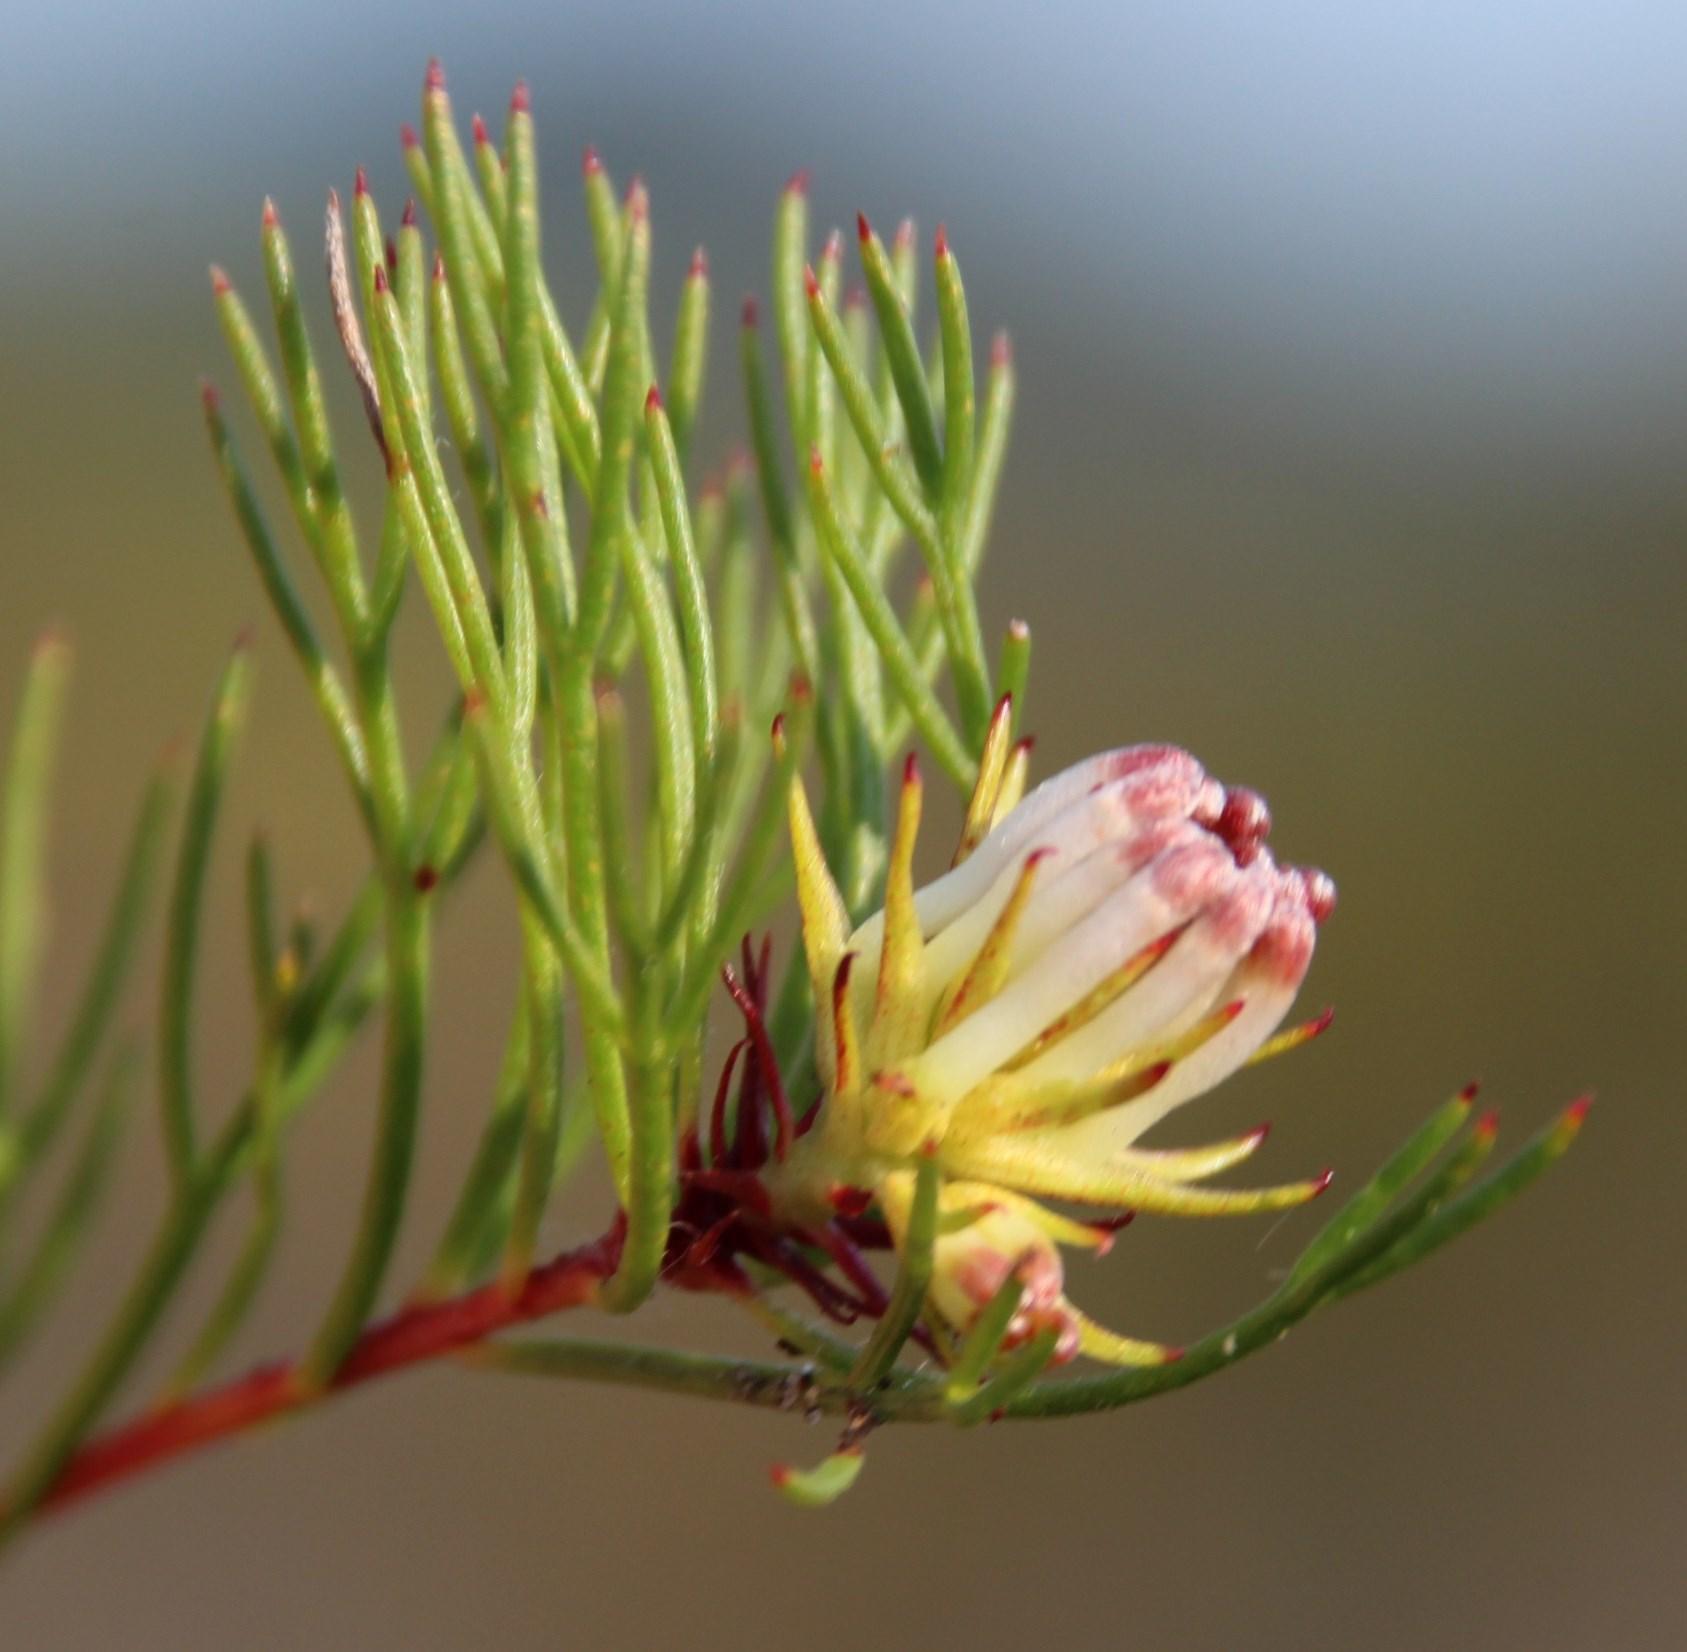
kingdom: Plantae
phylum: Tracheophyta
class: Magnoliopsida
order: Proteales
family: Proteaceae
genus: Serruria
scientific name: Serruria bolusii
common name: Agulhas spiderhead
